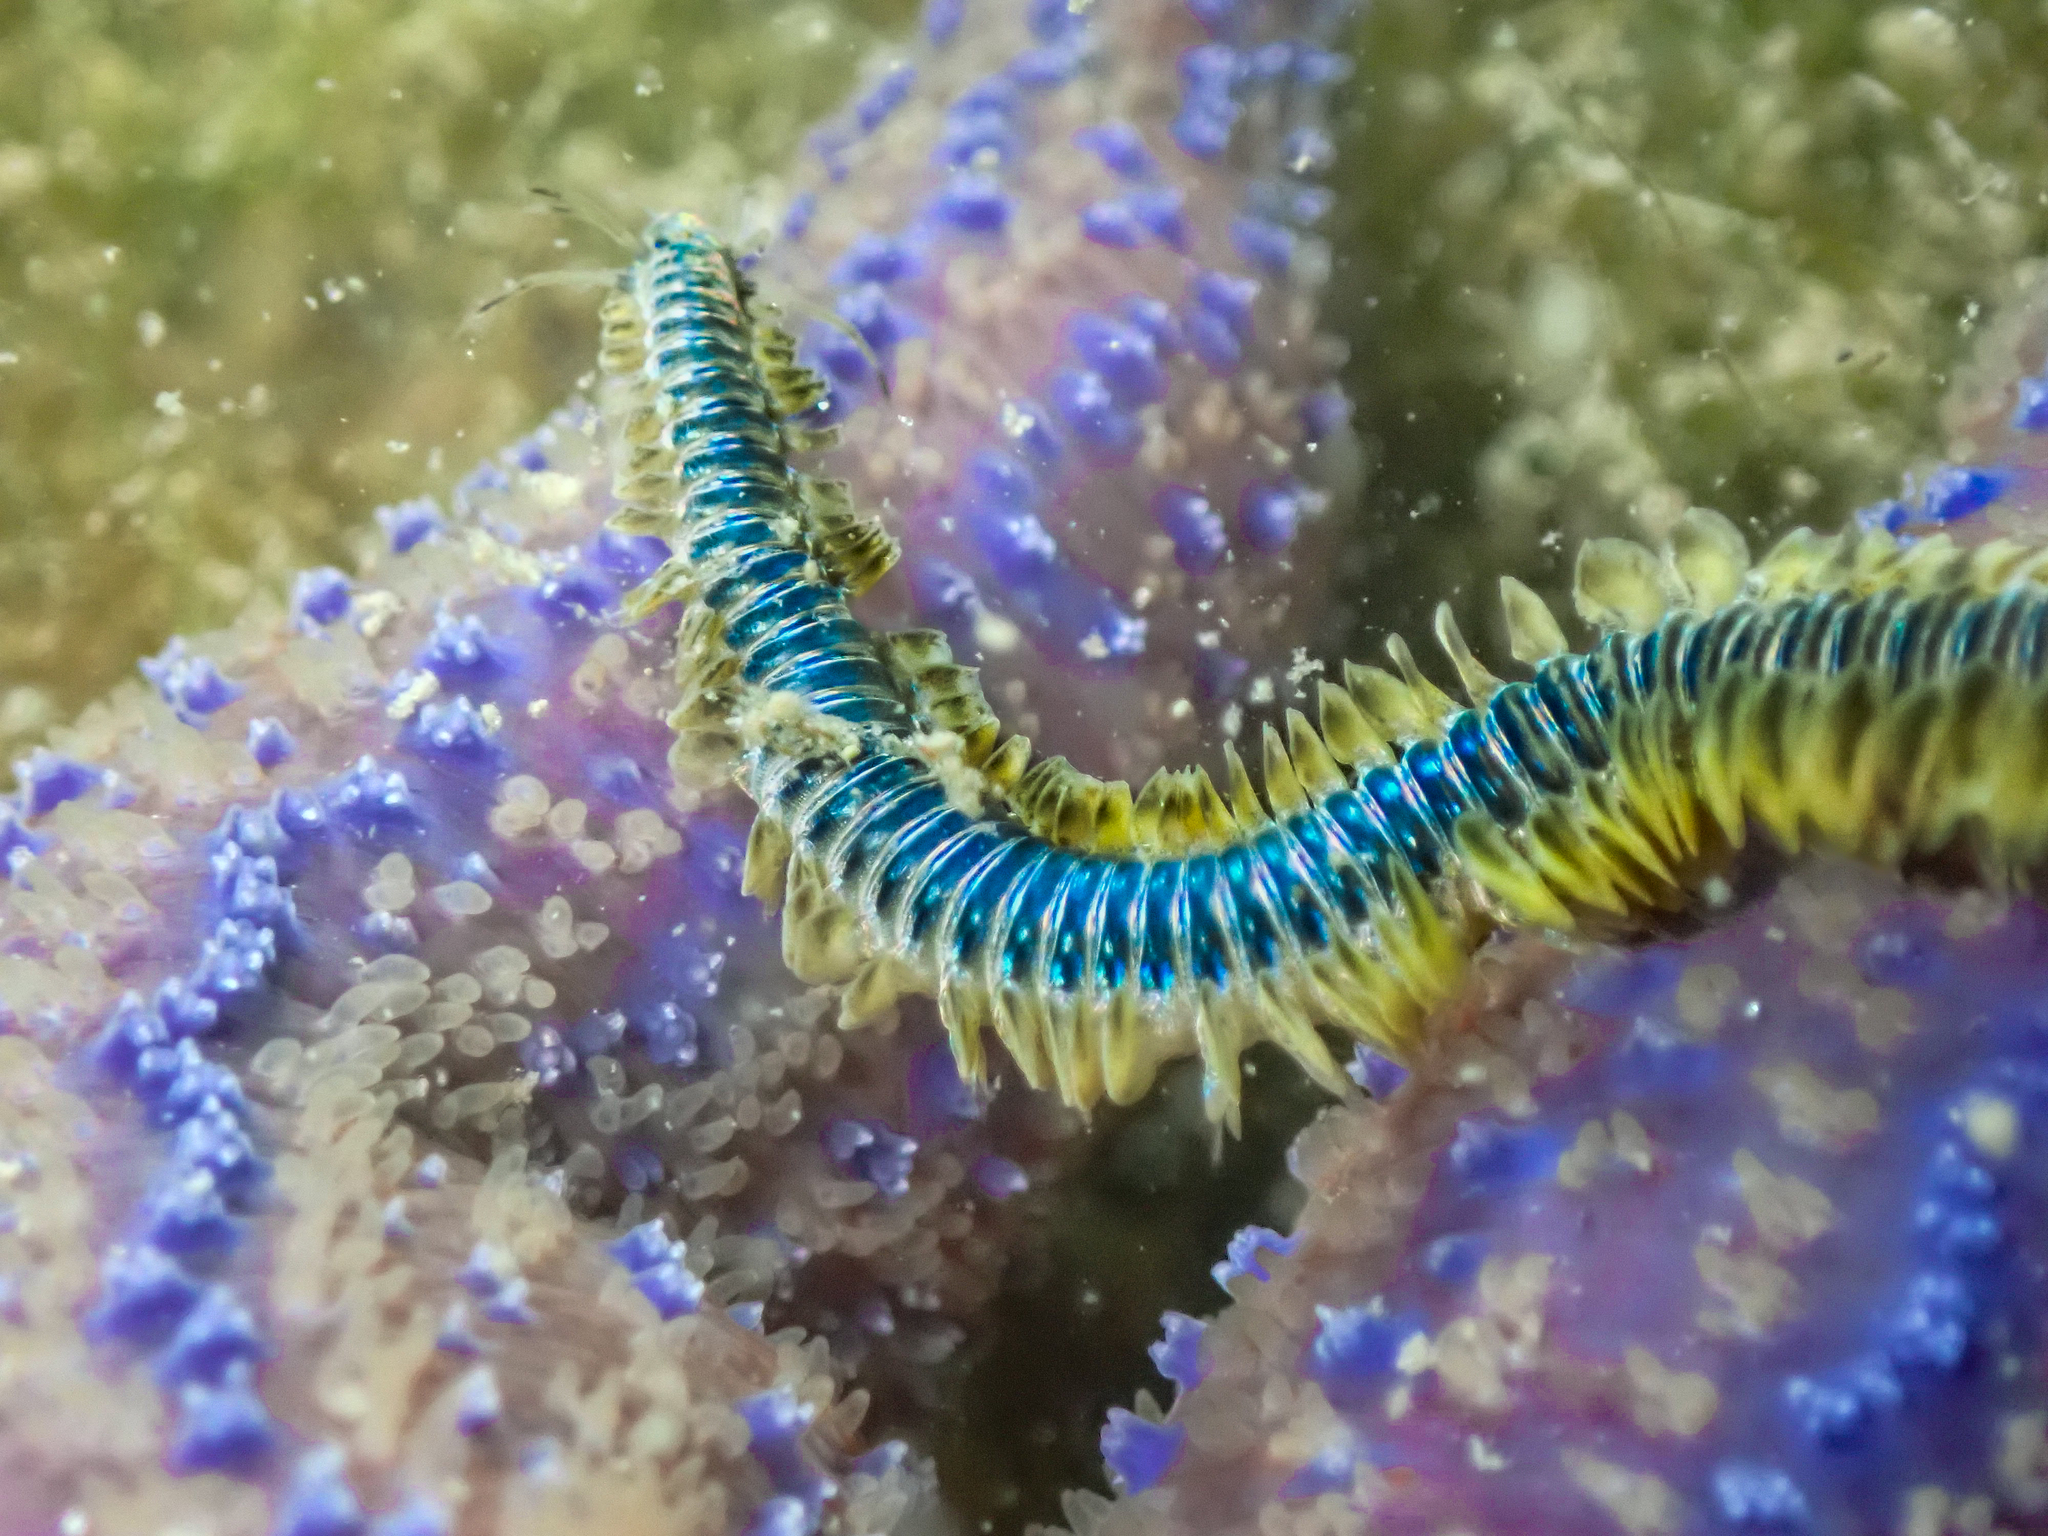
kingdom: Animalia
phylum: Annelida
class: Polychaeta
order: Phyllodocida
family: Phyllodocidae
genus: Phyllodoce
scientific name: Phyllodoce lamelligera
